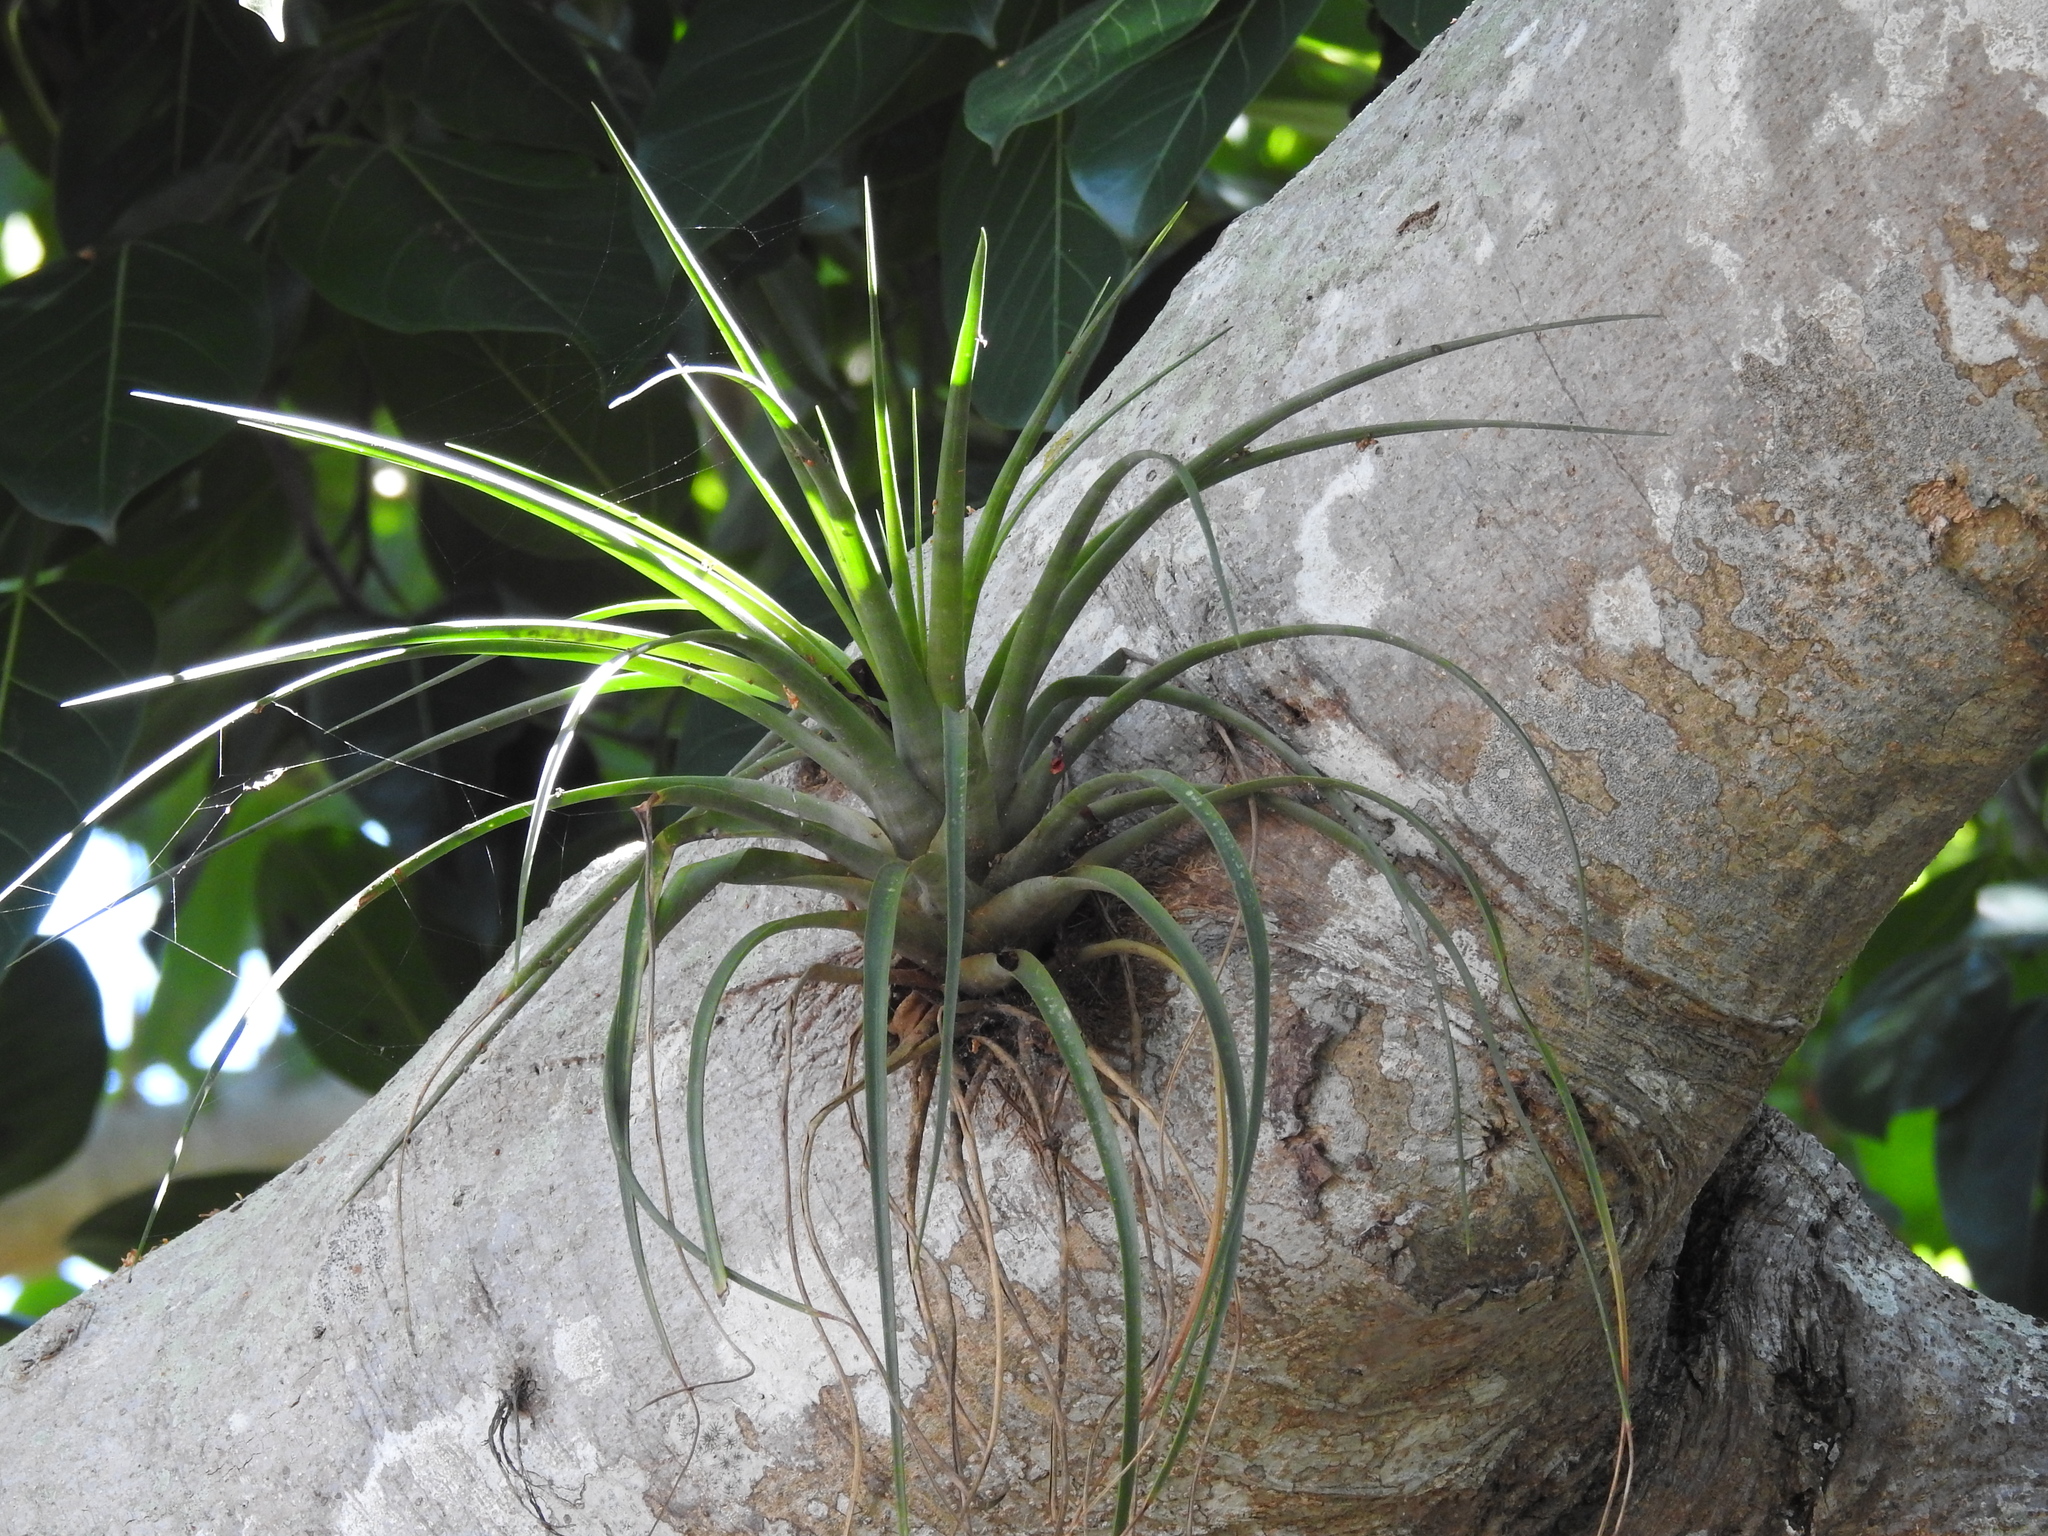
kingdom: Plantae
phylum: Tracheophyta
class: Liliopsida
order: Poales
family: Bromeliaceae
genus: Tillandsia
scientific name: Tillandsia fasciculata
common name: Giant airplant
